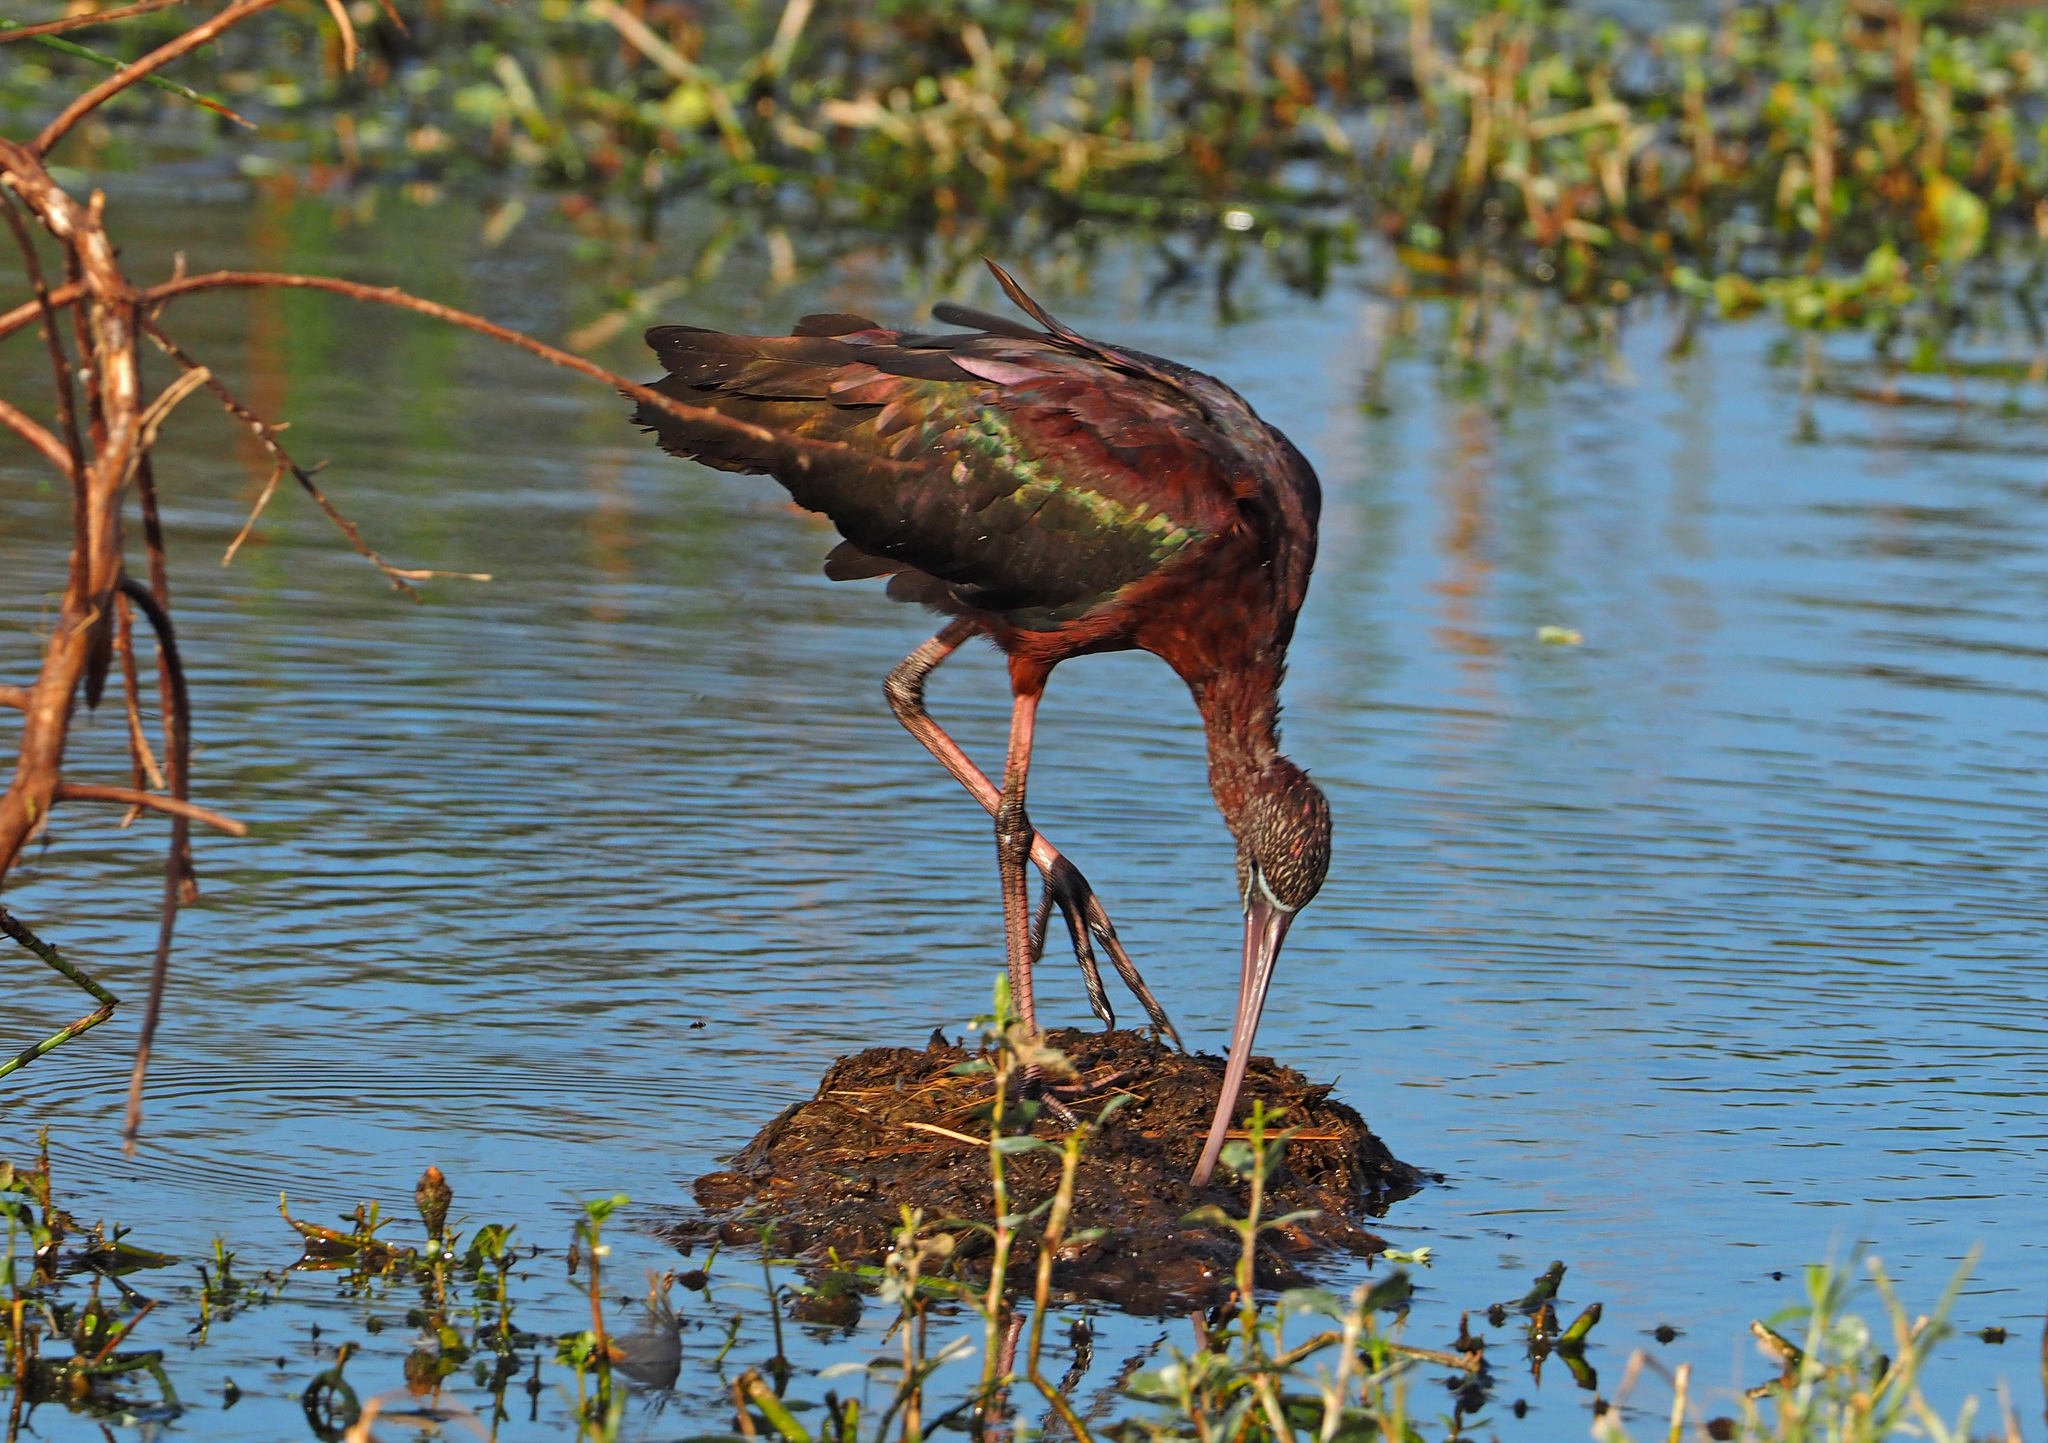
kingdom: Animalia
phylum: Chordata
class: Aves
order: Pelecaniformes
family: Threskiornithidae
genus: Plegadis
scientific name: Plegadis falcinellus
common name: Glossy ibis
